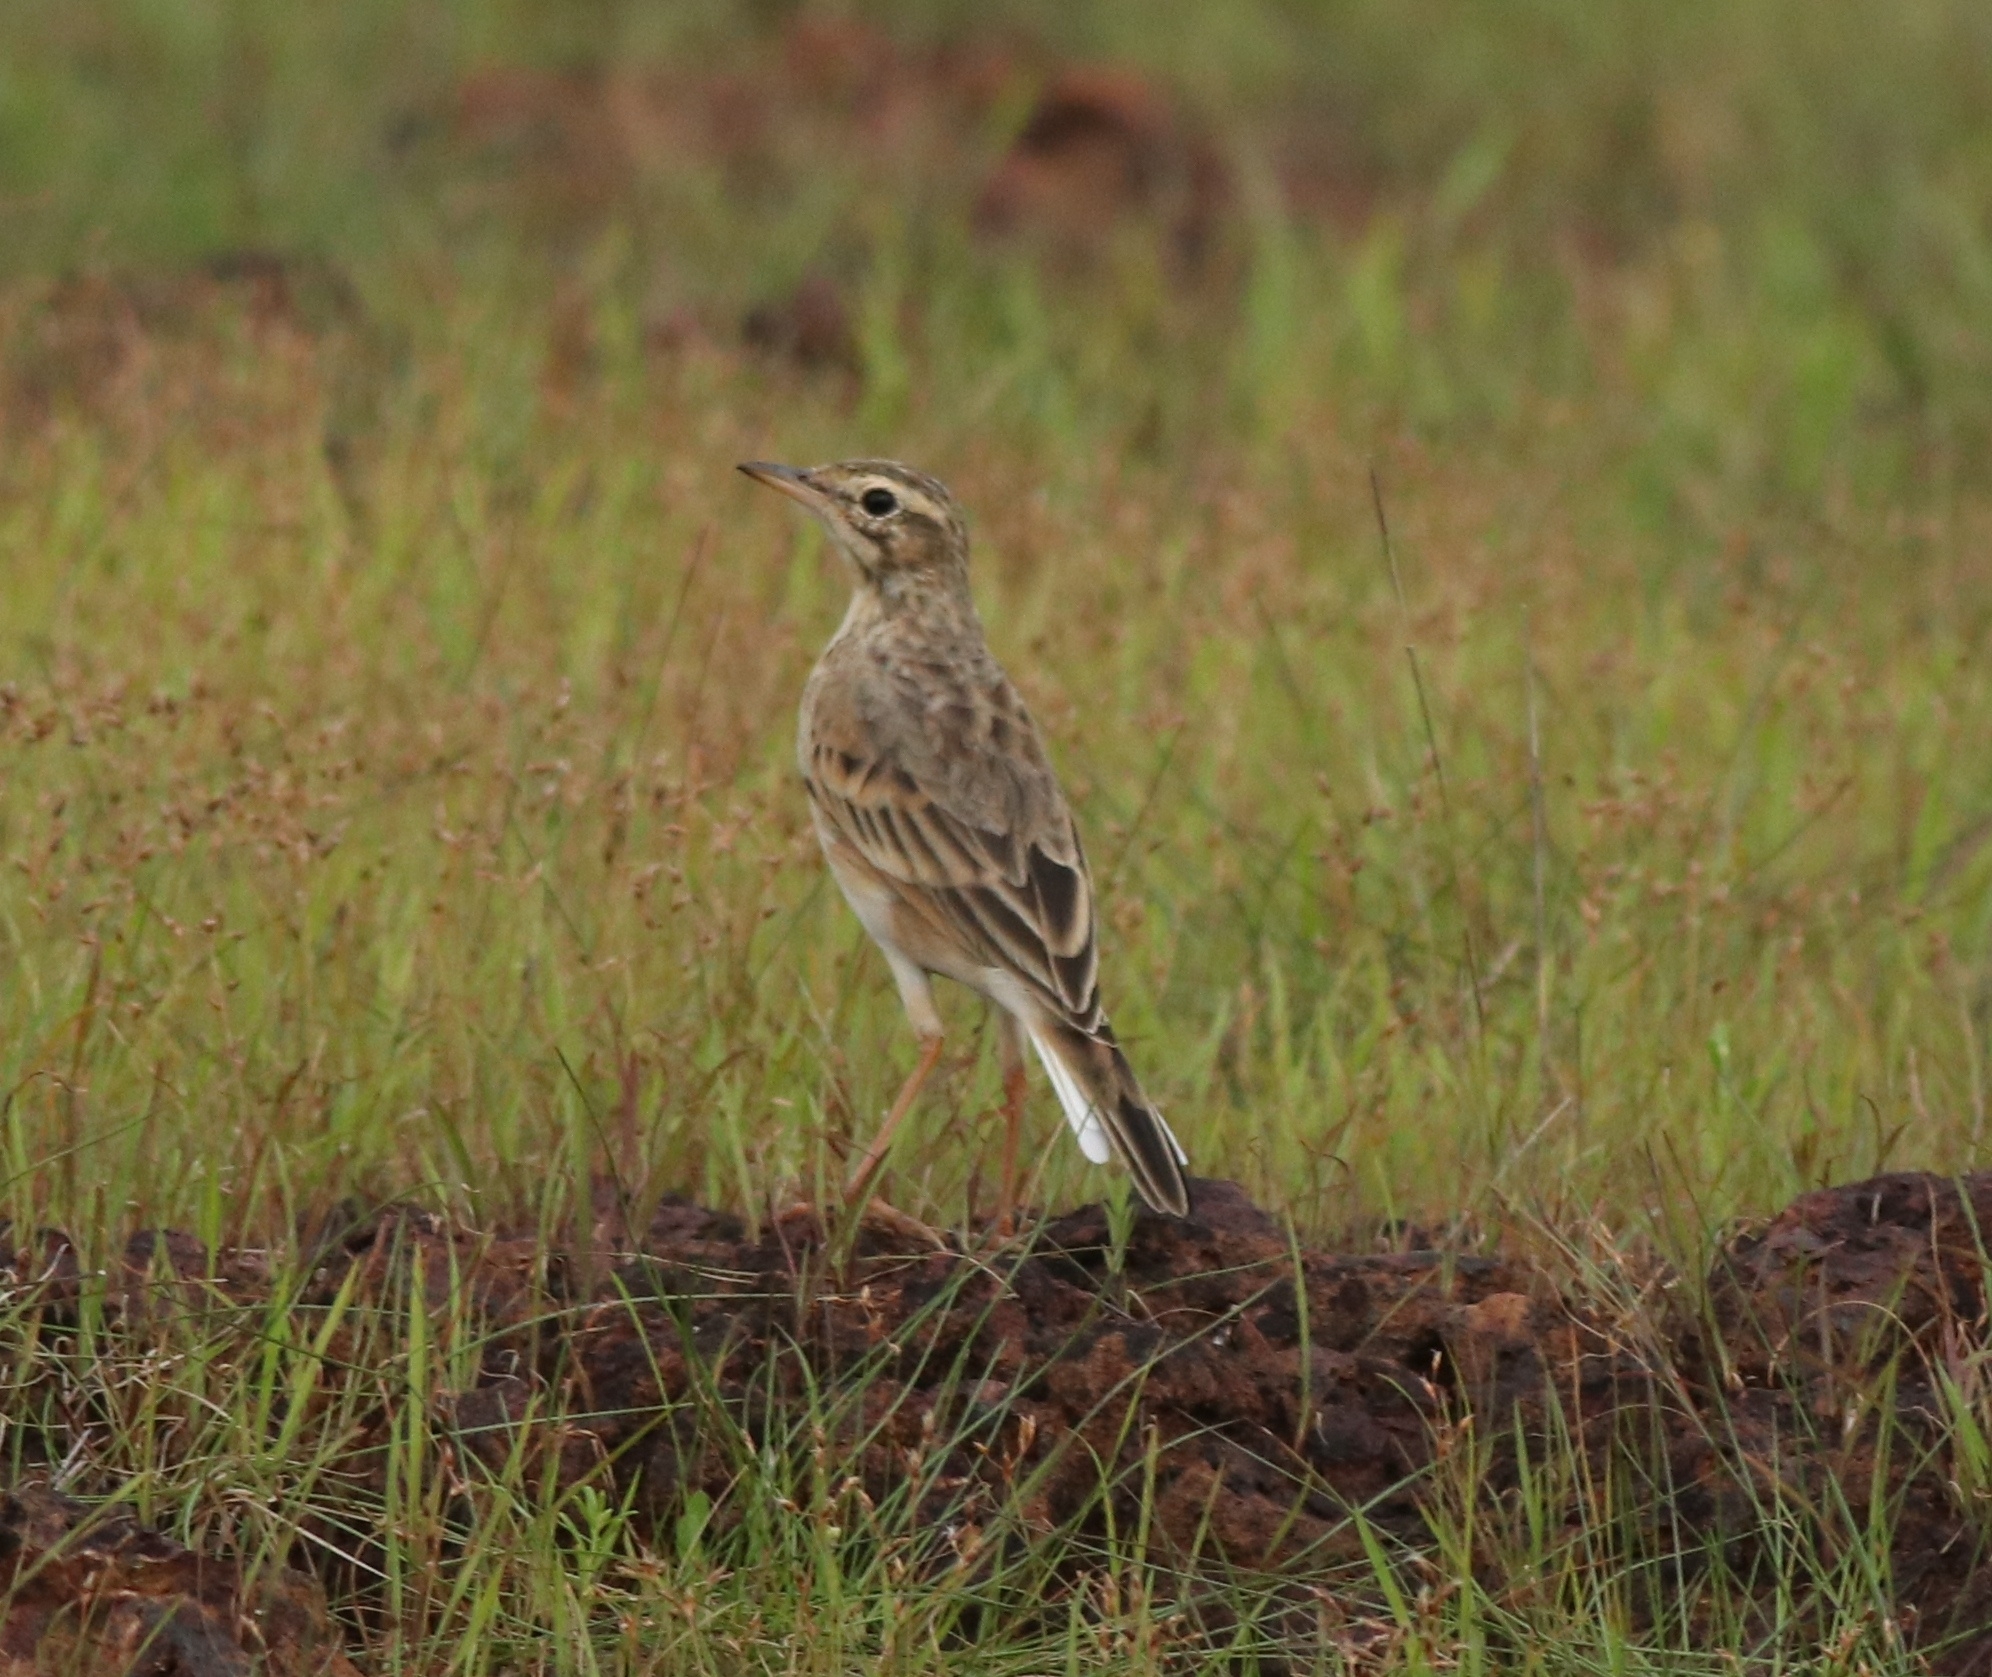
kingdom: Animalia
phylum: Chordata
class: Aves
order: Passeriformes
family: Motacillidae
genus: Anthus
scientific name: Anthus rufulus
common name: Paddyfield pipit
